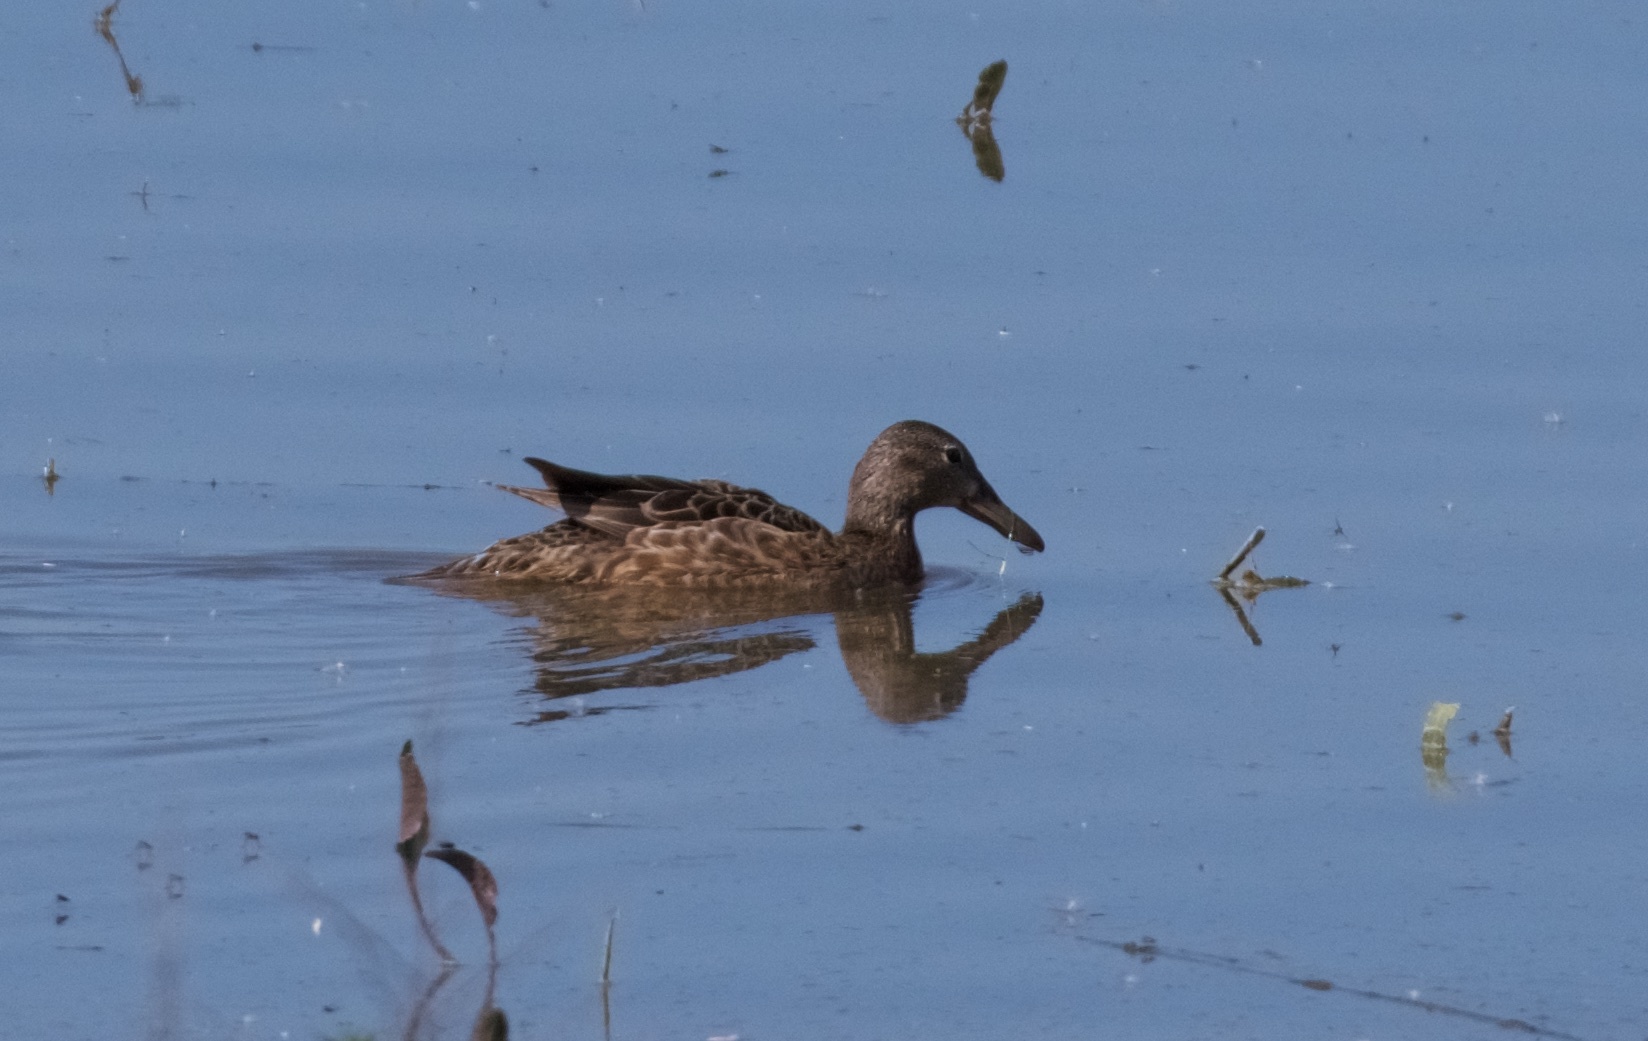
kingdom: Animalia
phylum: Chordata
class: Aves
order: Anseriformes
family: Anatidae
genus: Spatula
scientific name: Spatula clypeata
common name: Northern shoveler
